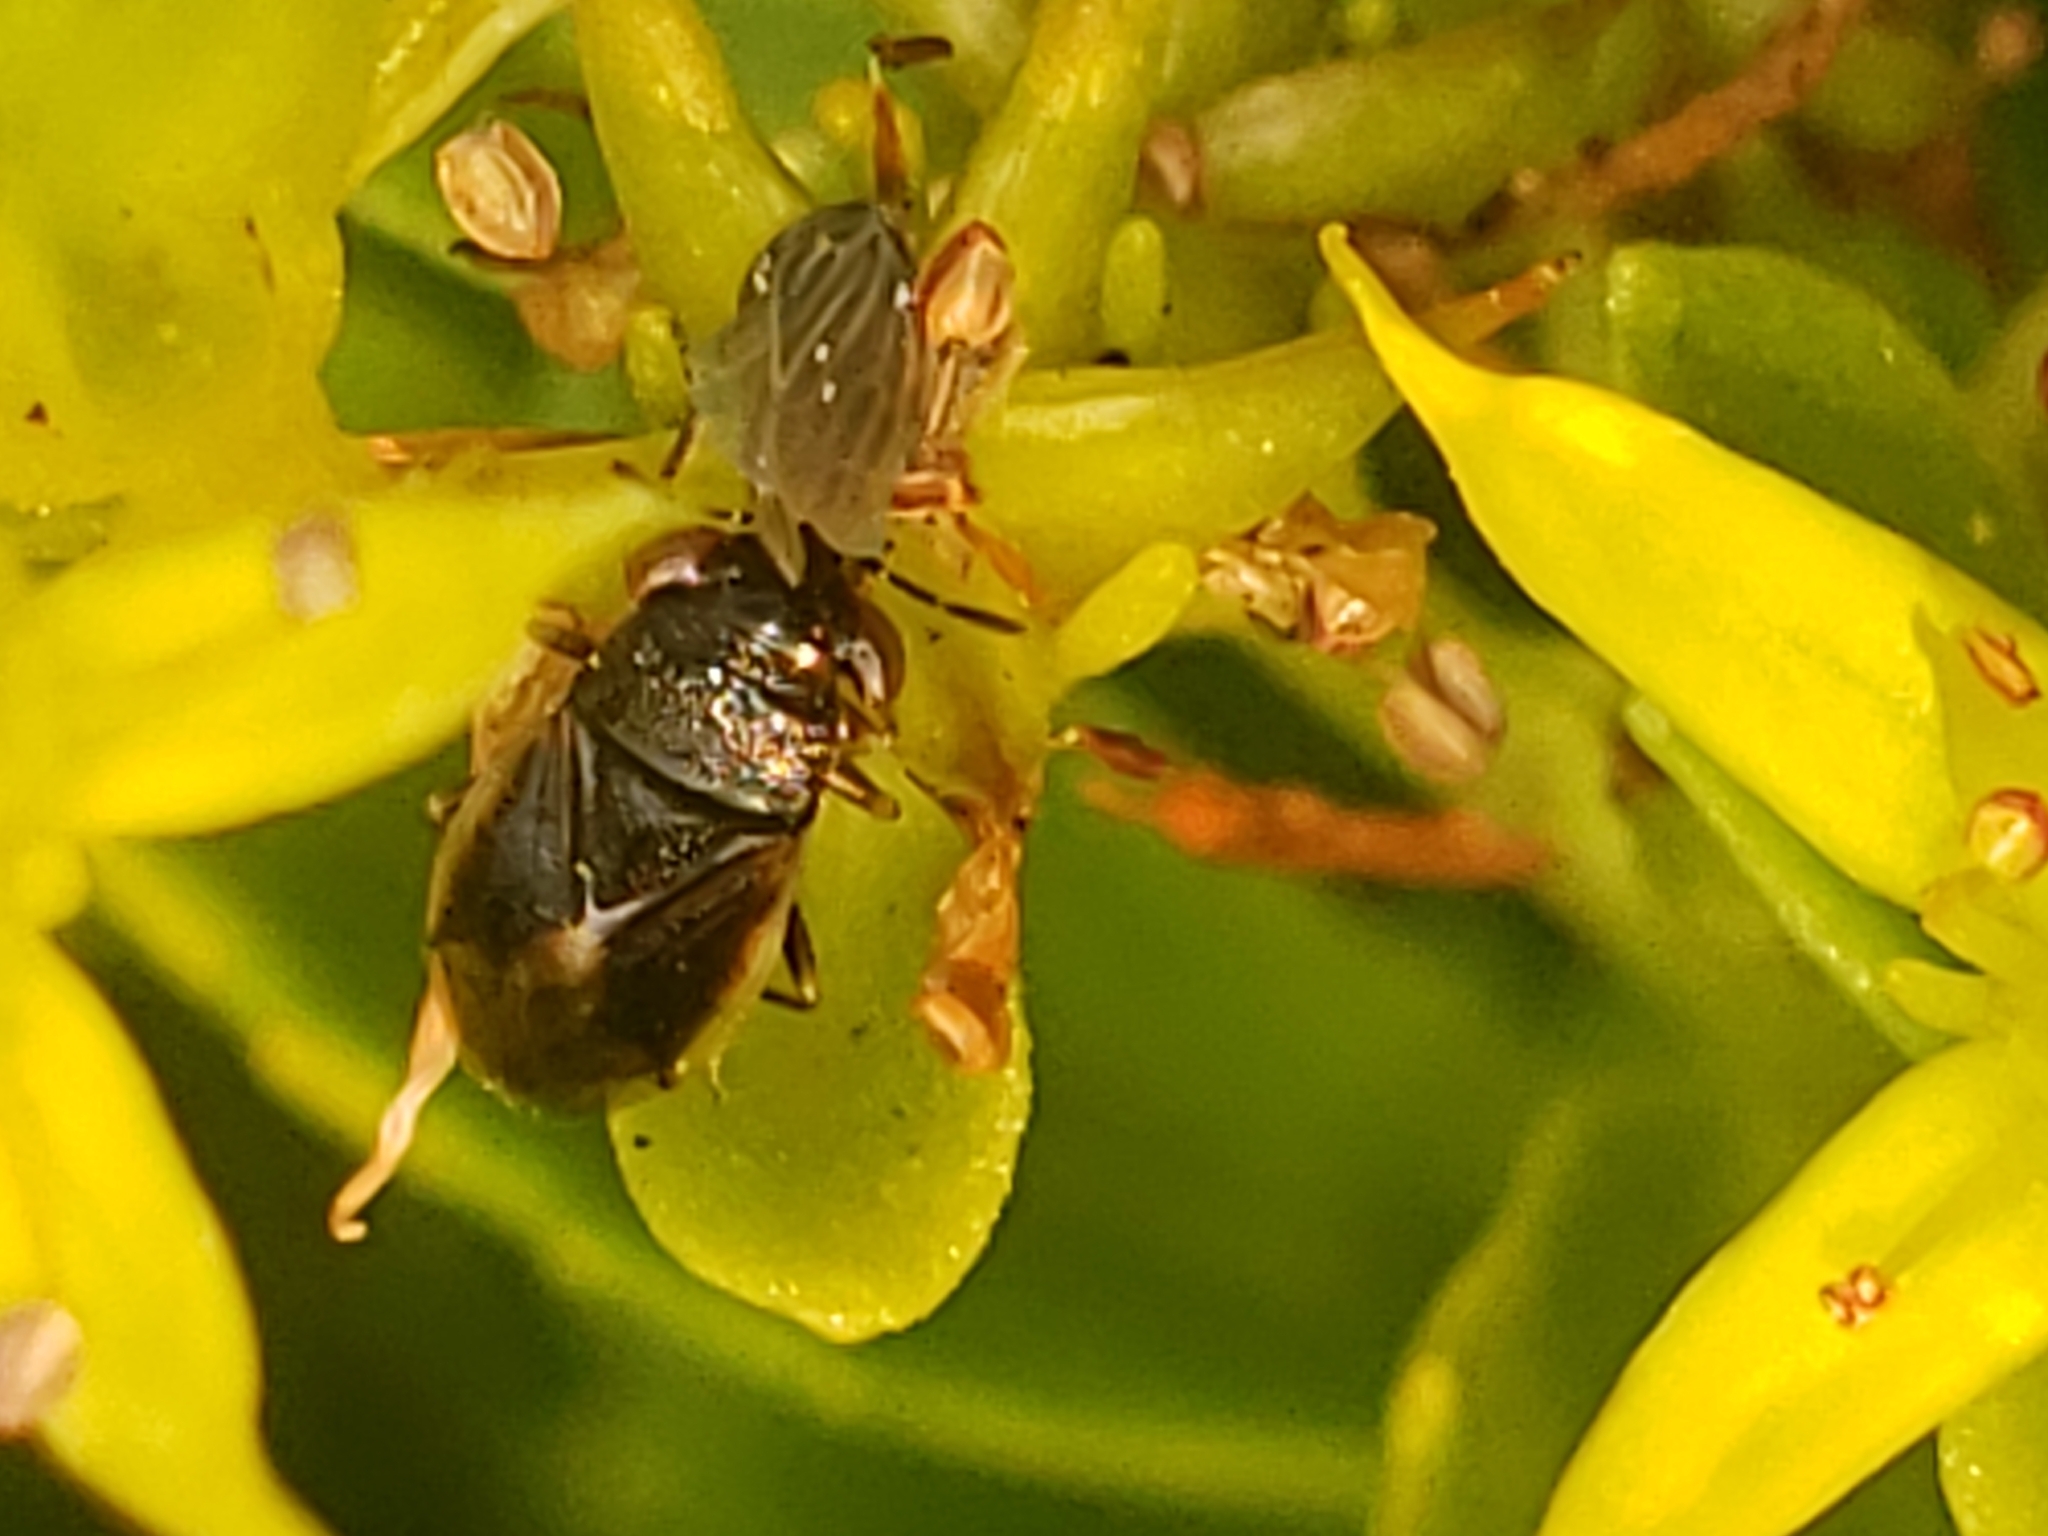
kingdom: Animalia
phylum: Arthropoda
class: Insecta
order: Hemiptera
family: Geocoridae
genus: Geocoris
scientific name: Geocoris uliginosus
